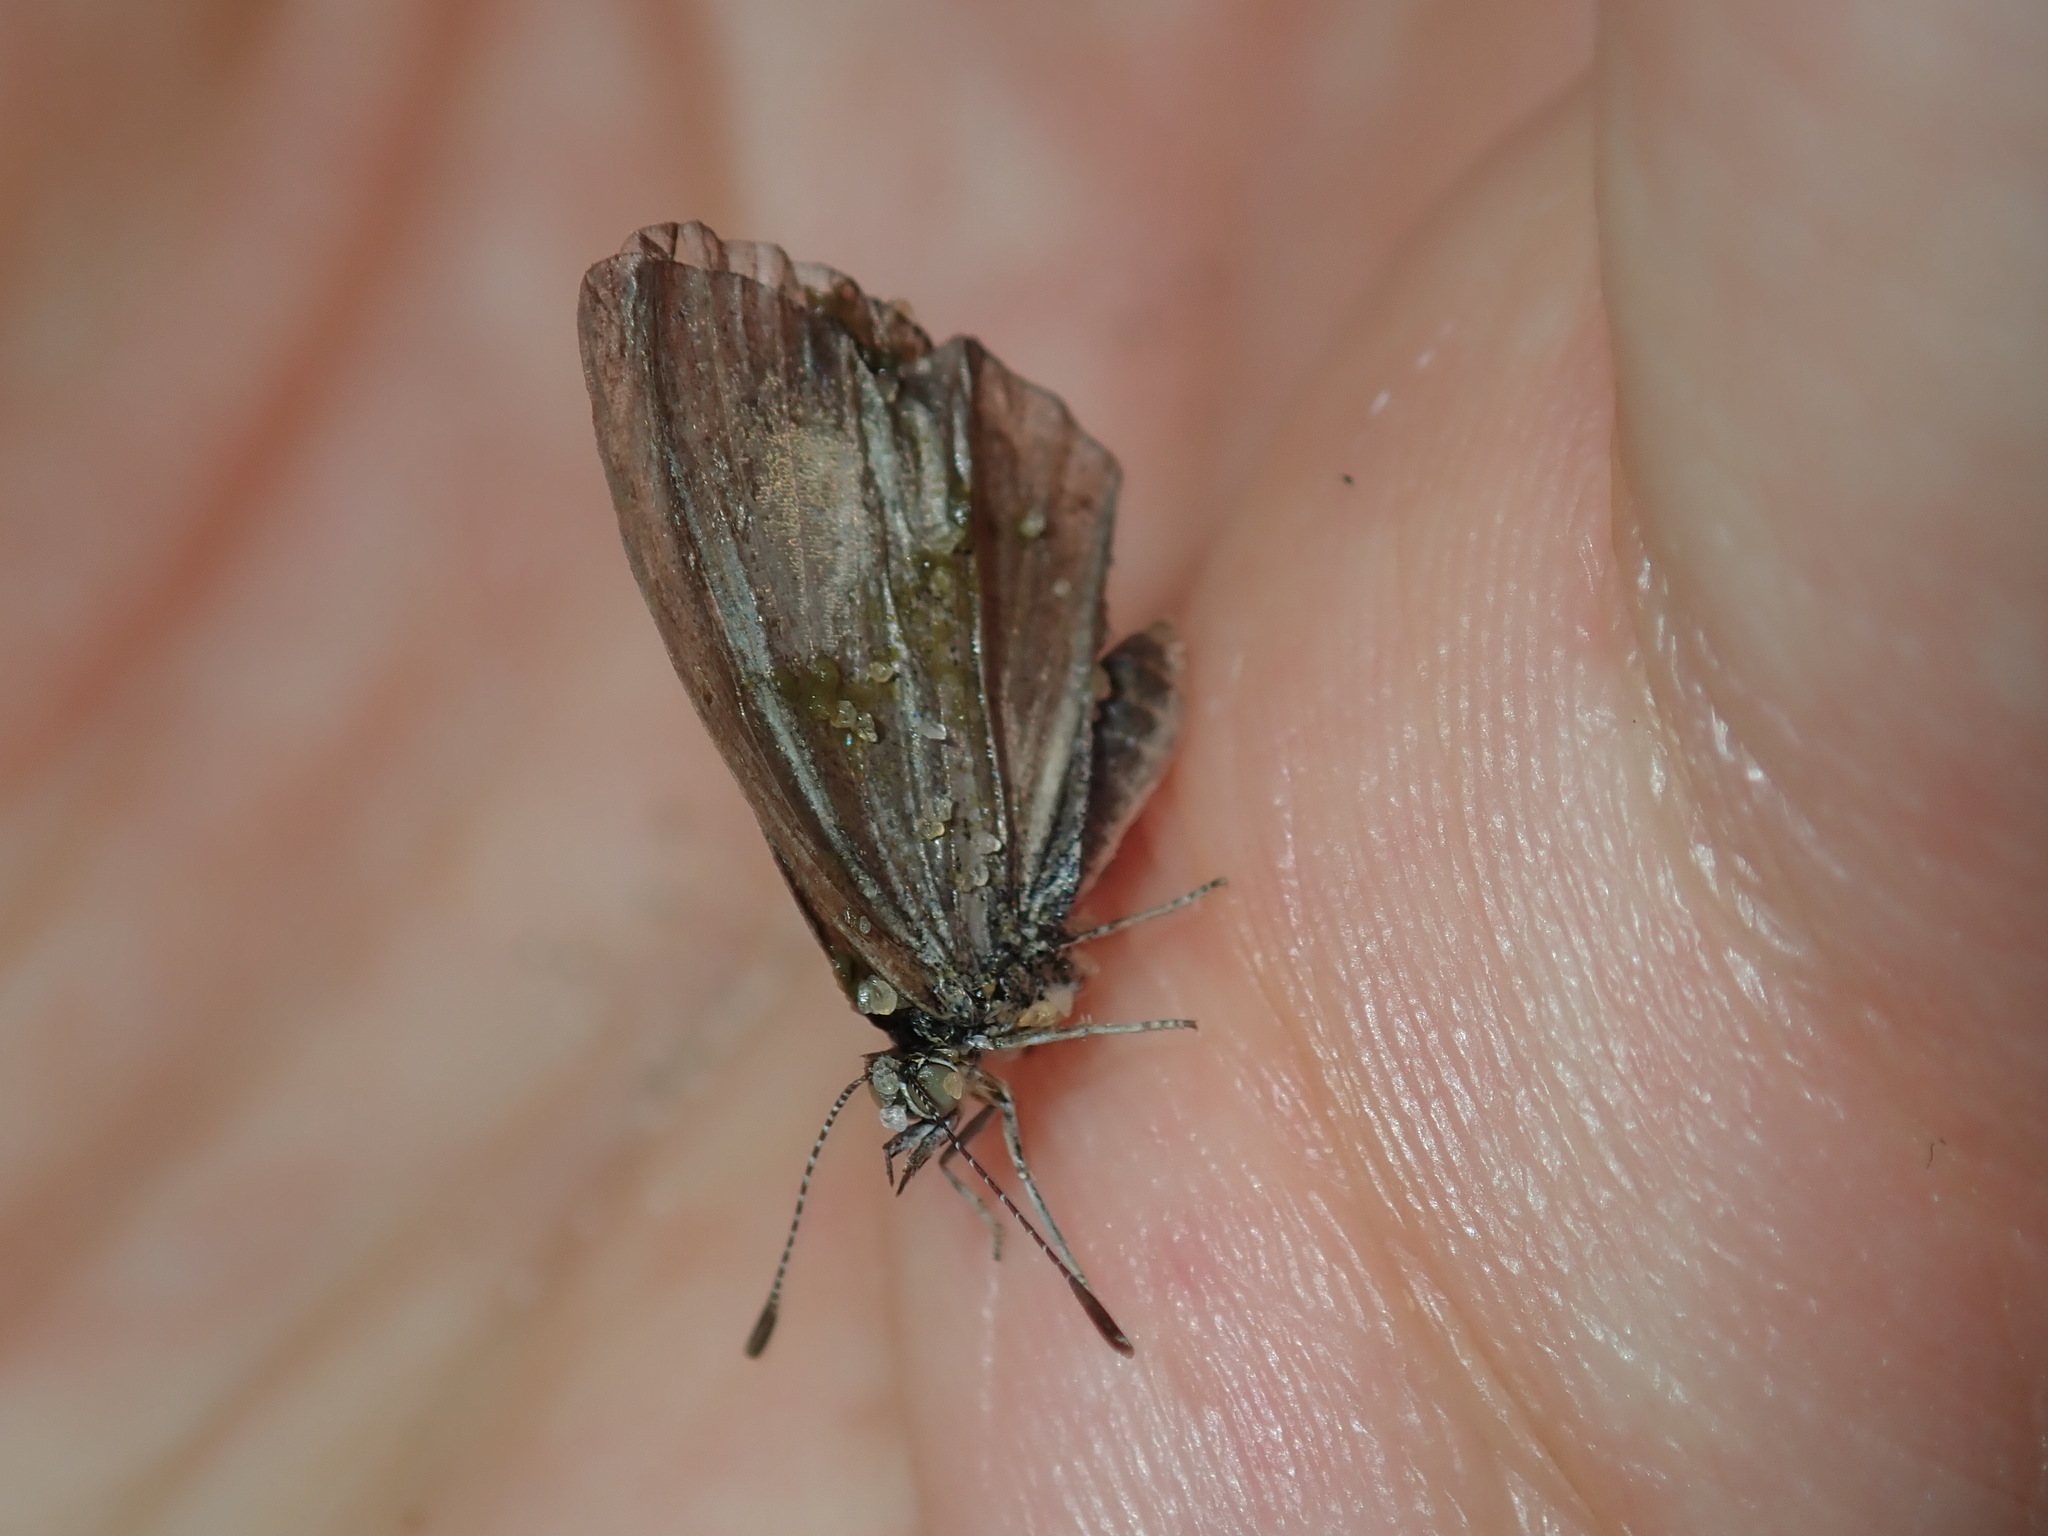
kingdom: Animalia
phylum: Arthropoda
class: Insecta
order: Lepidoptera
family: Lycaenidae
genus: Zizina
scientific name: Zizina otis
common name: Lesser grass blue
